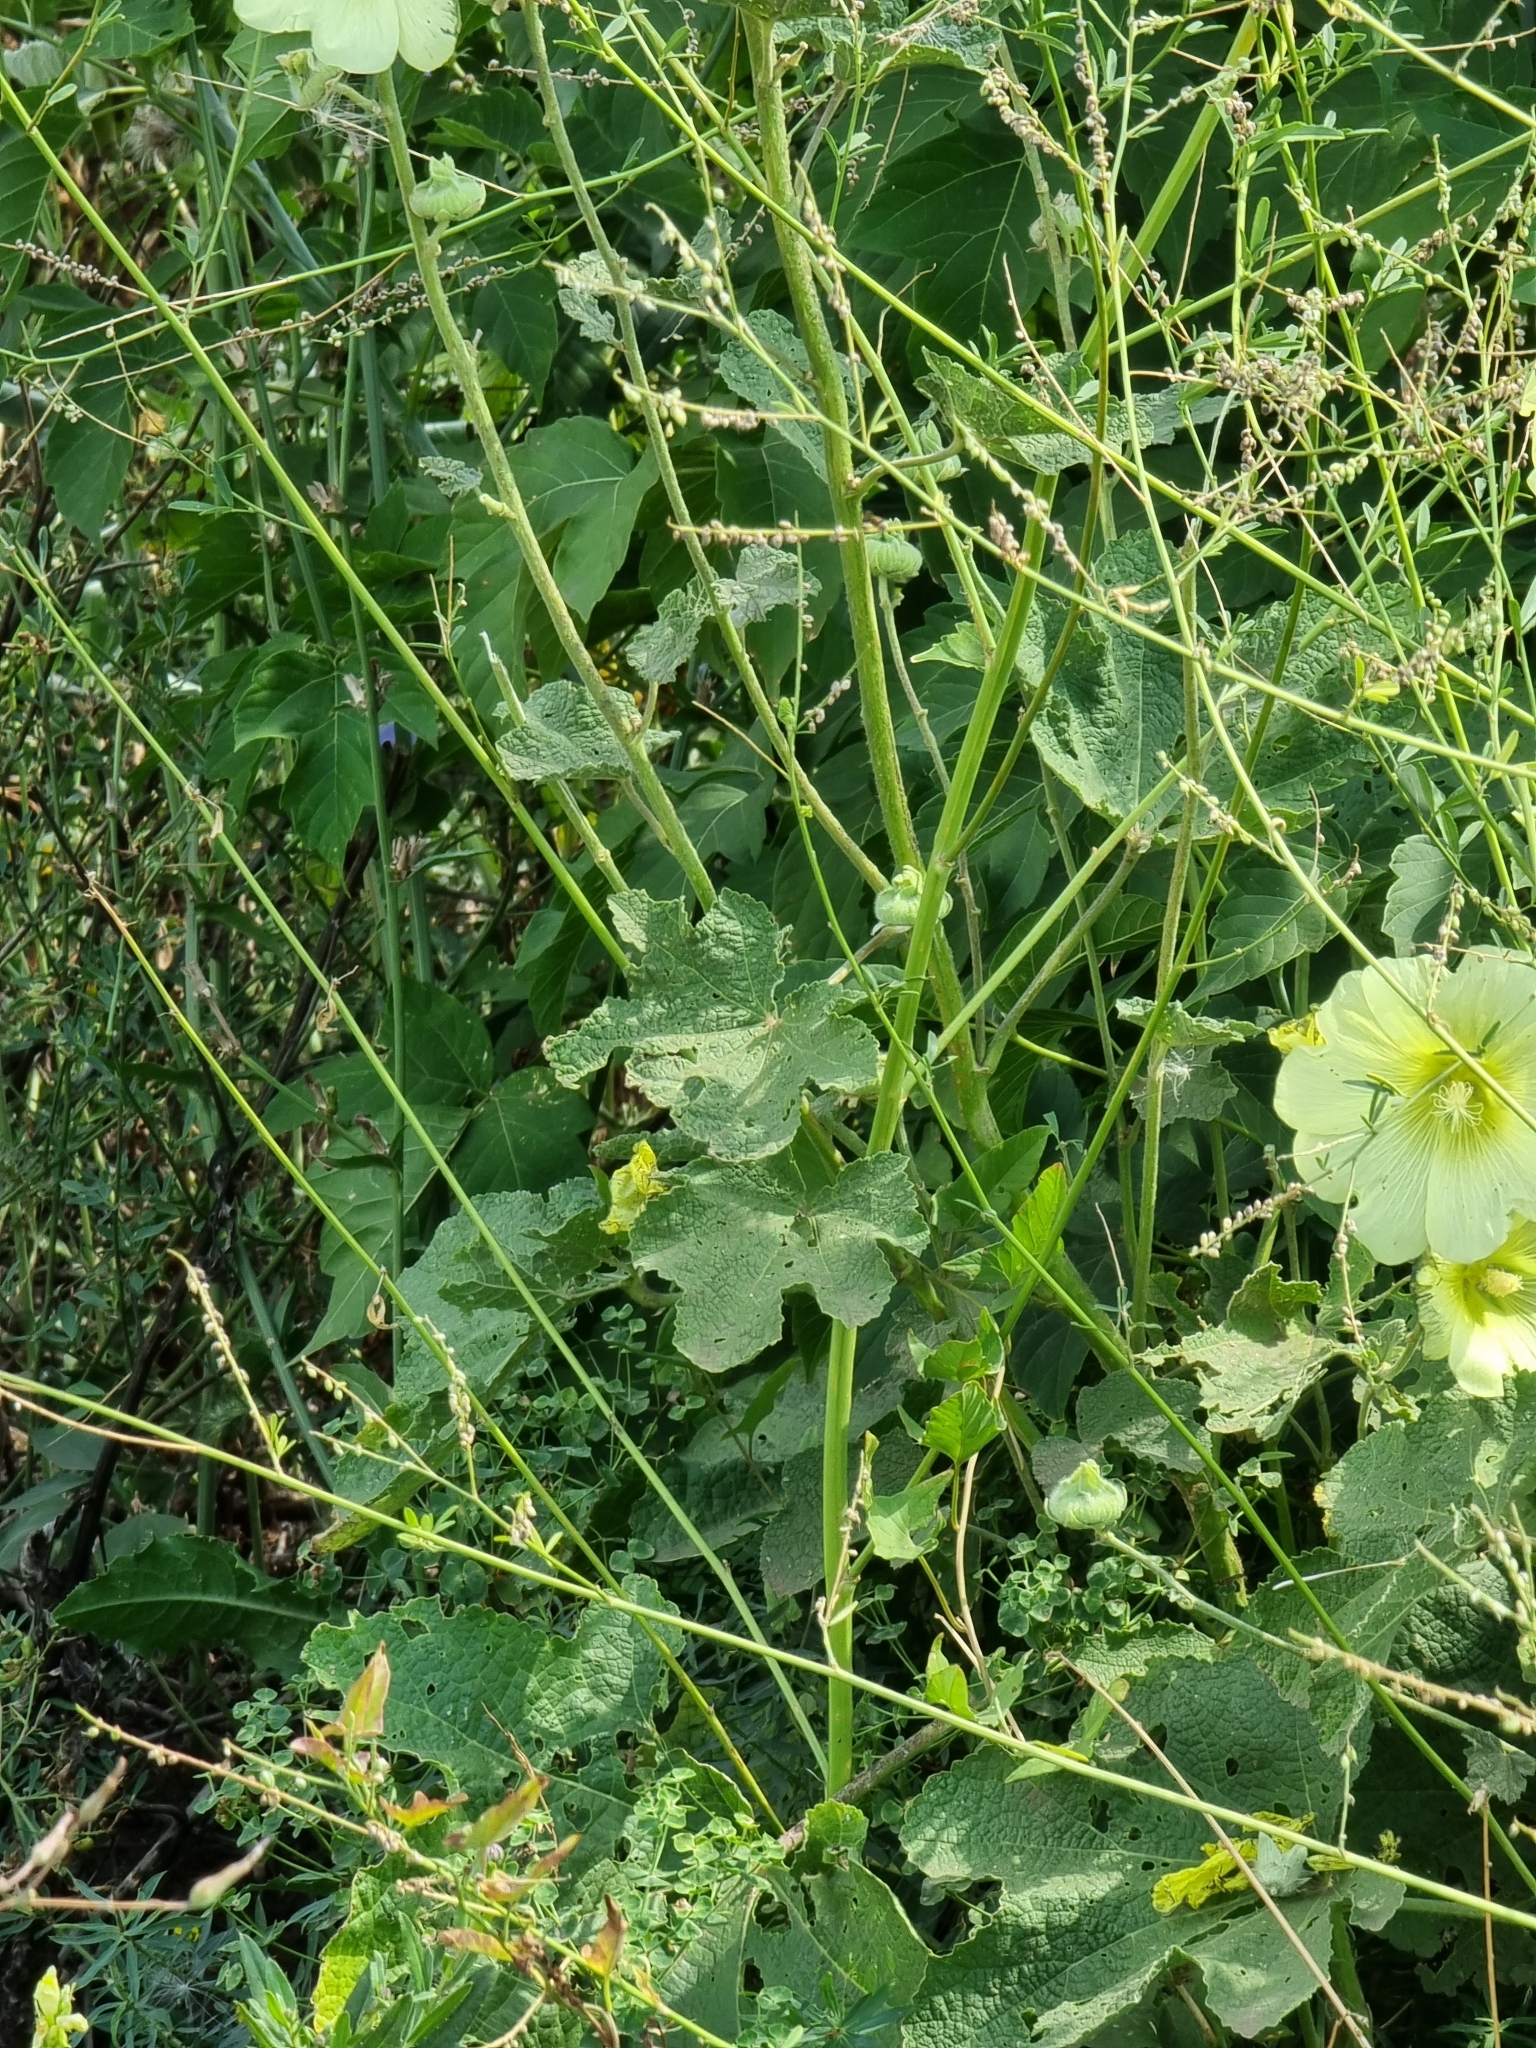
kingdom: Plantae
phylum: Tracheophyta
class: Magnoliopsida
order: Malvales
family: Malvaceae
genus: Alcea
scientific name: Alcea rugosa
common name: Russian hollyhock
